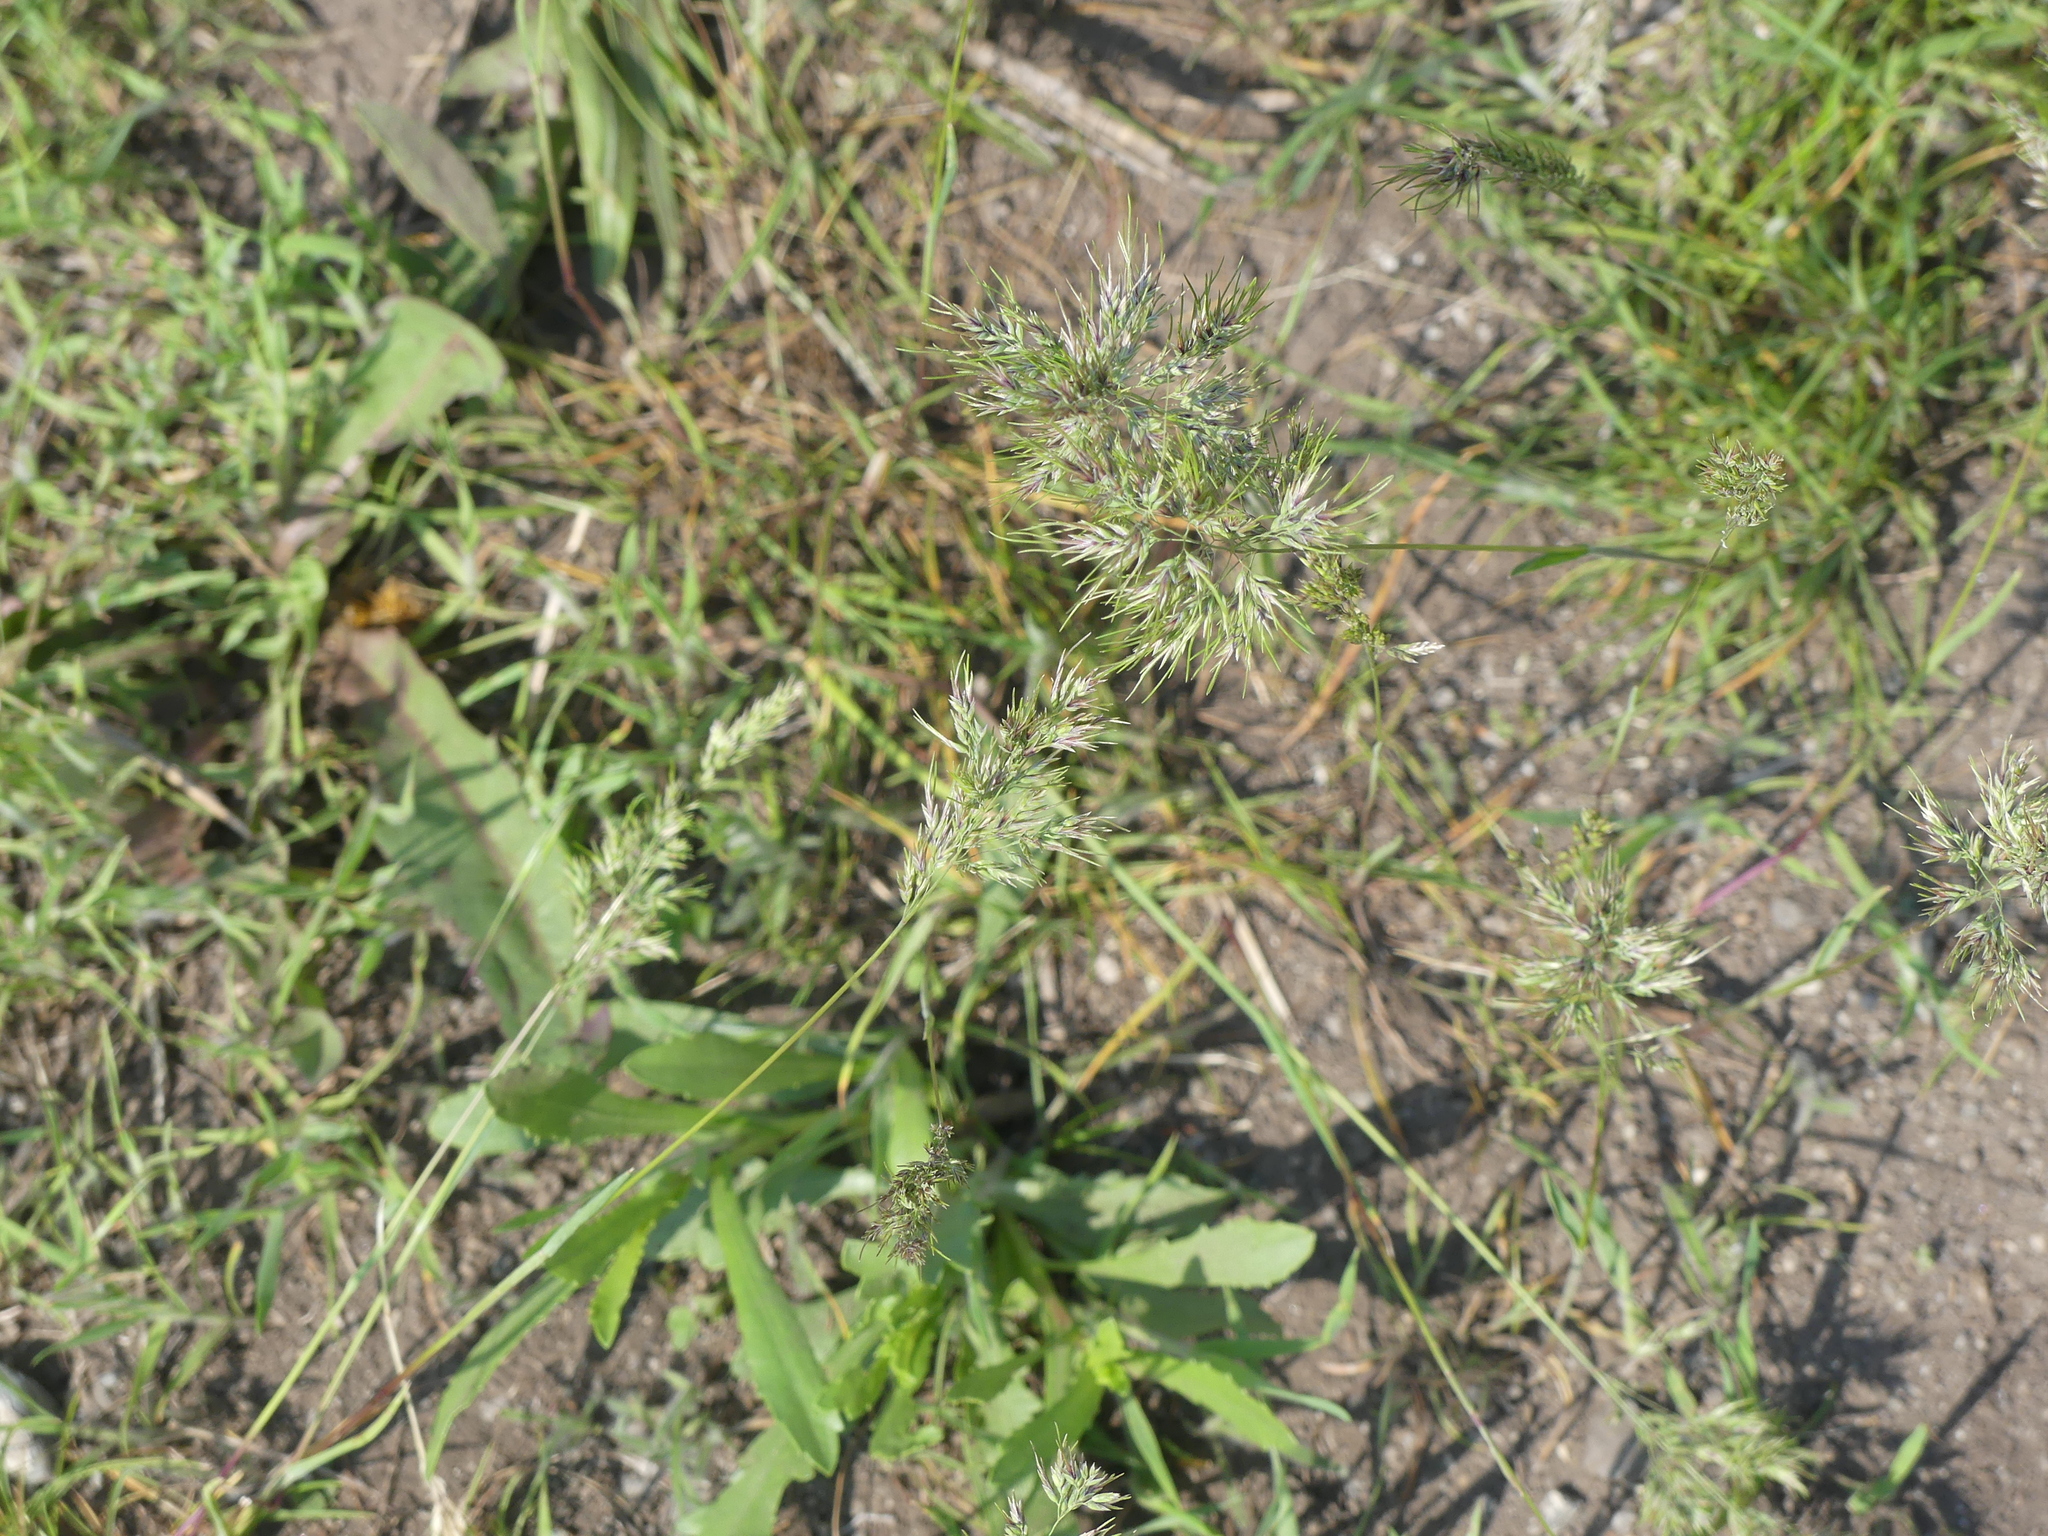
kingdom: Plantae
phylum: Tracheophyta
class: Liliopsida
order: Poales
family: Poaceae
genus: Poa
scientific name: Poa bulbosa
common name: Bulbous bluegrass
